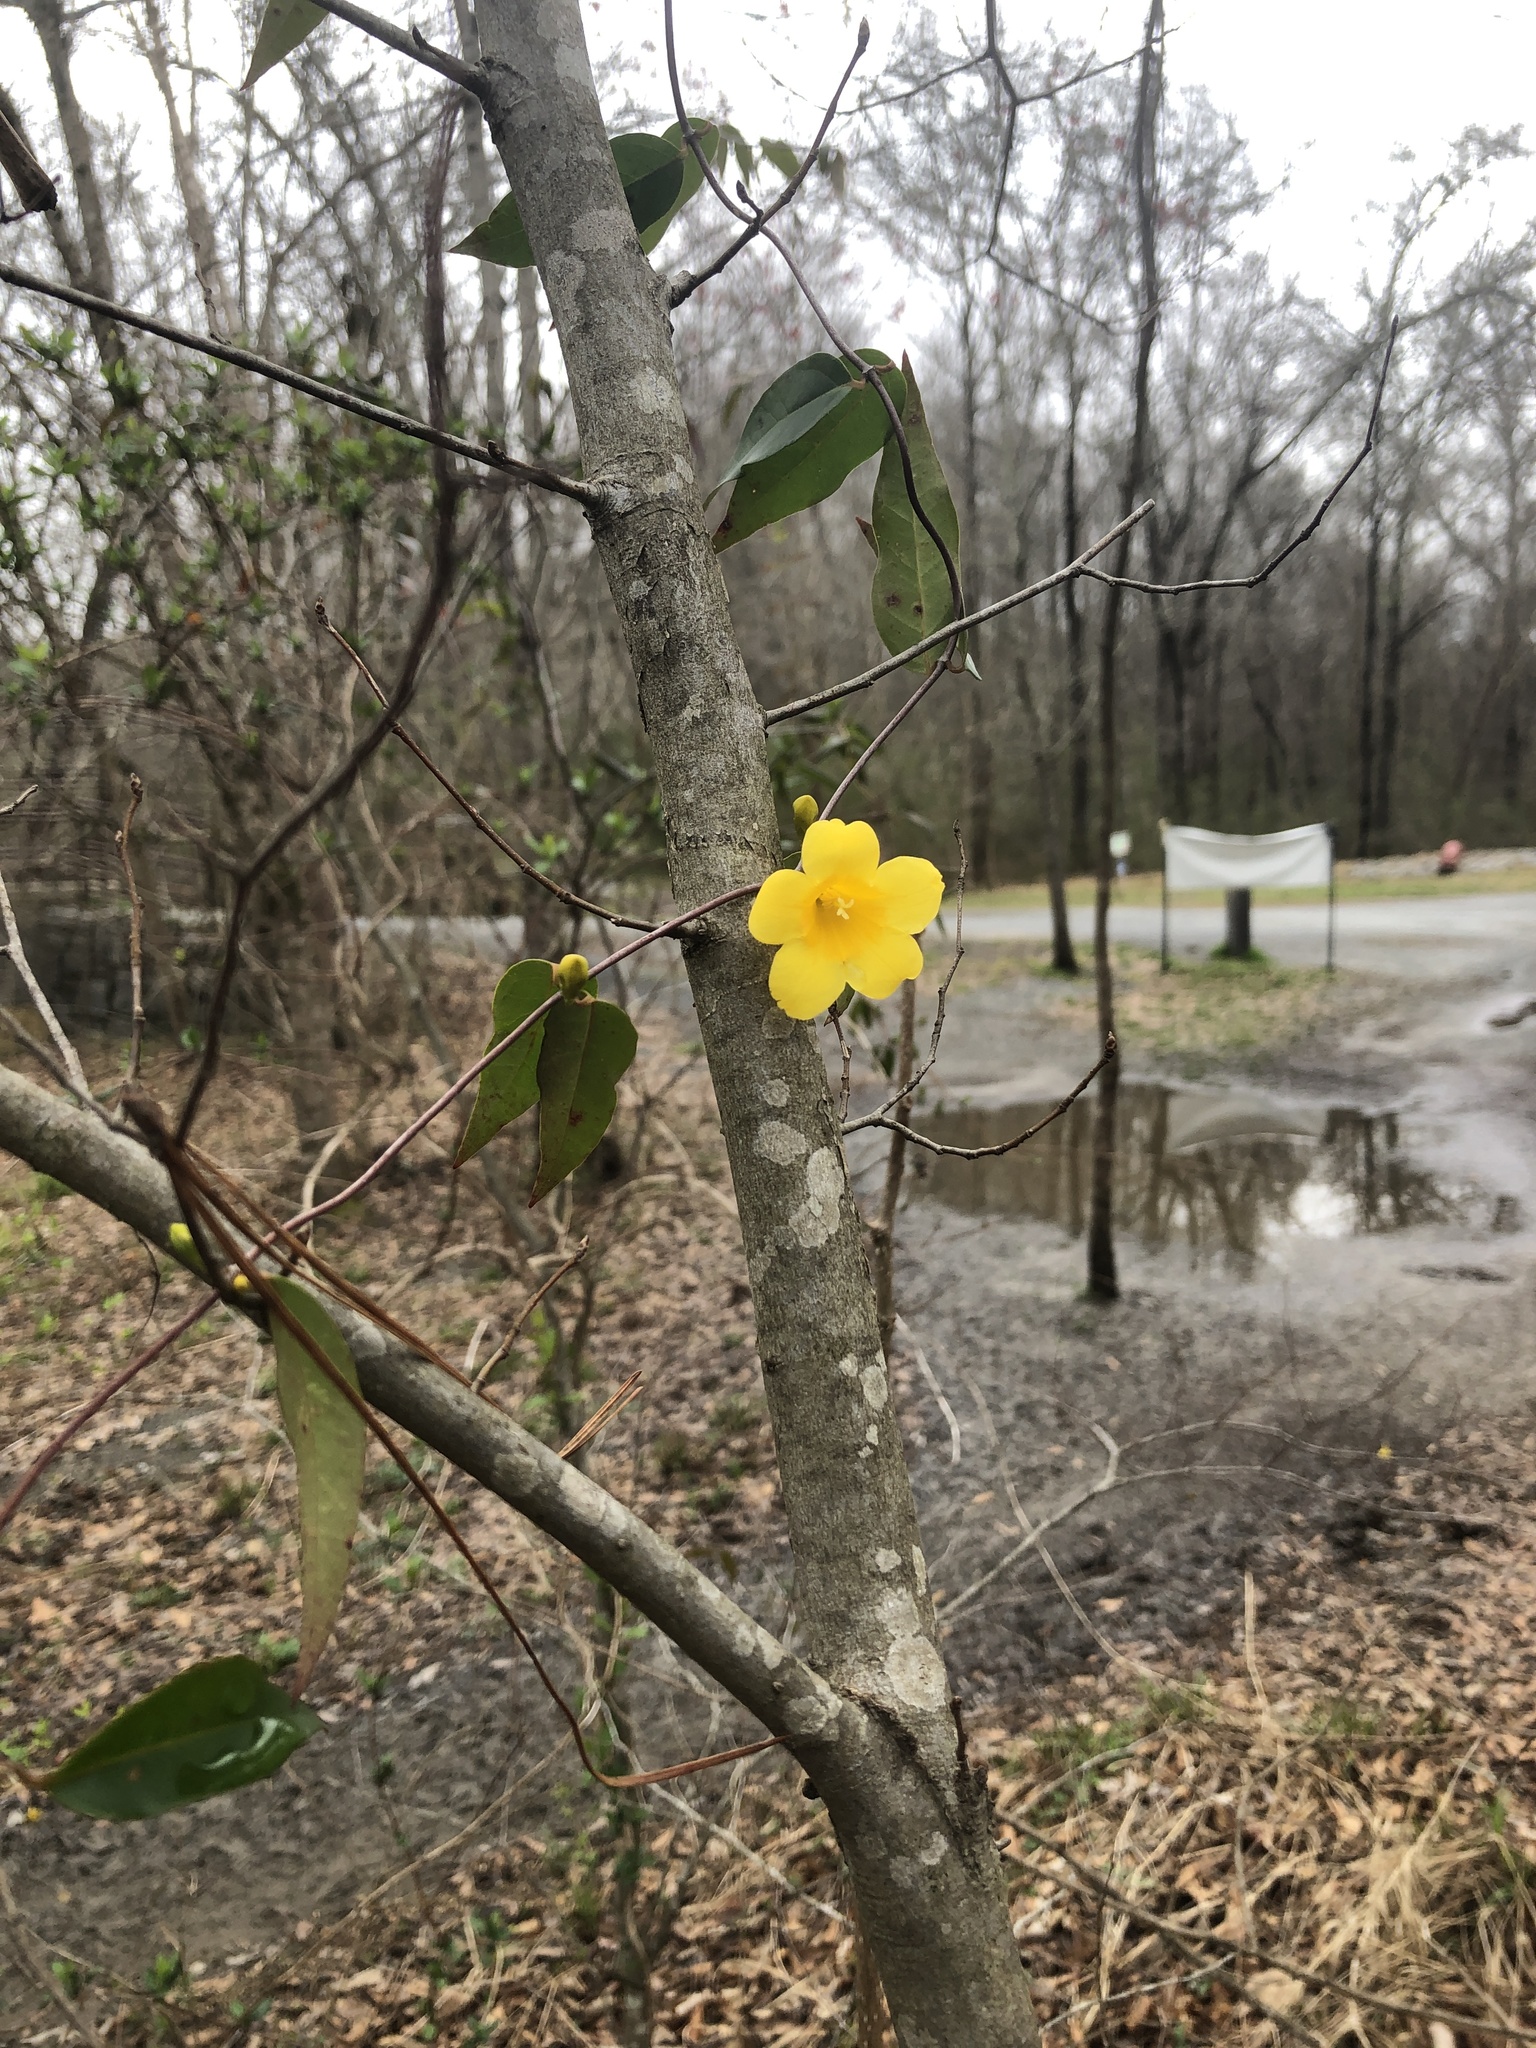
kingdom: Plantae
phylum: Tracheophyta
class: Magnoliopsida
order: Gentianales
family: Gelsemiaceae
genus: Gelsemium
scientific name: Gelsemium sempervirens
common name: Carolina-jasmine
